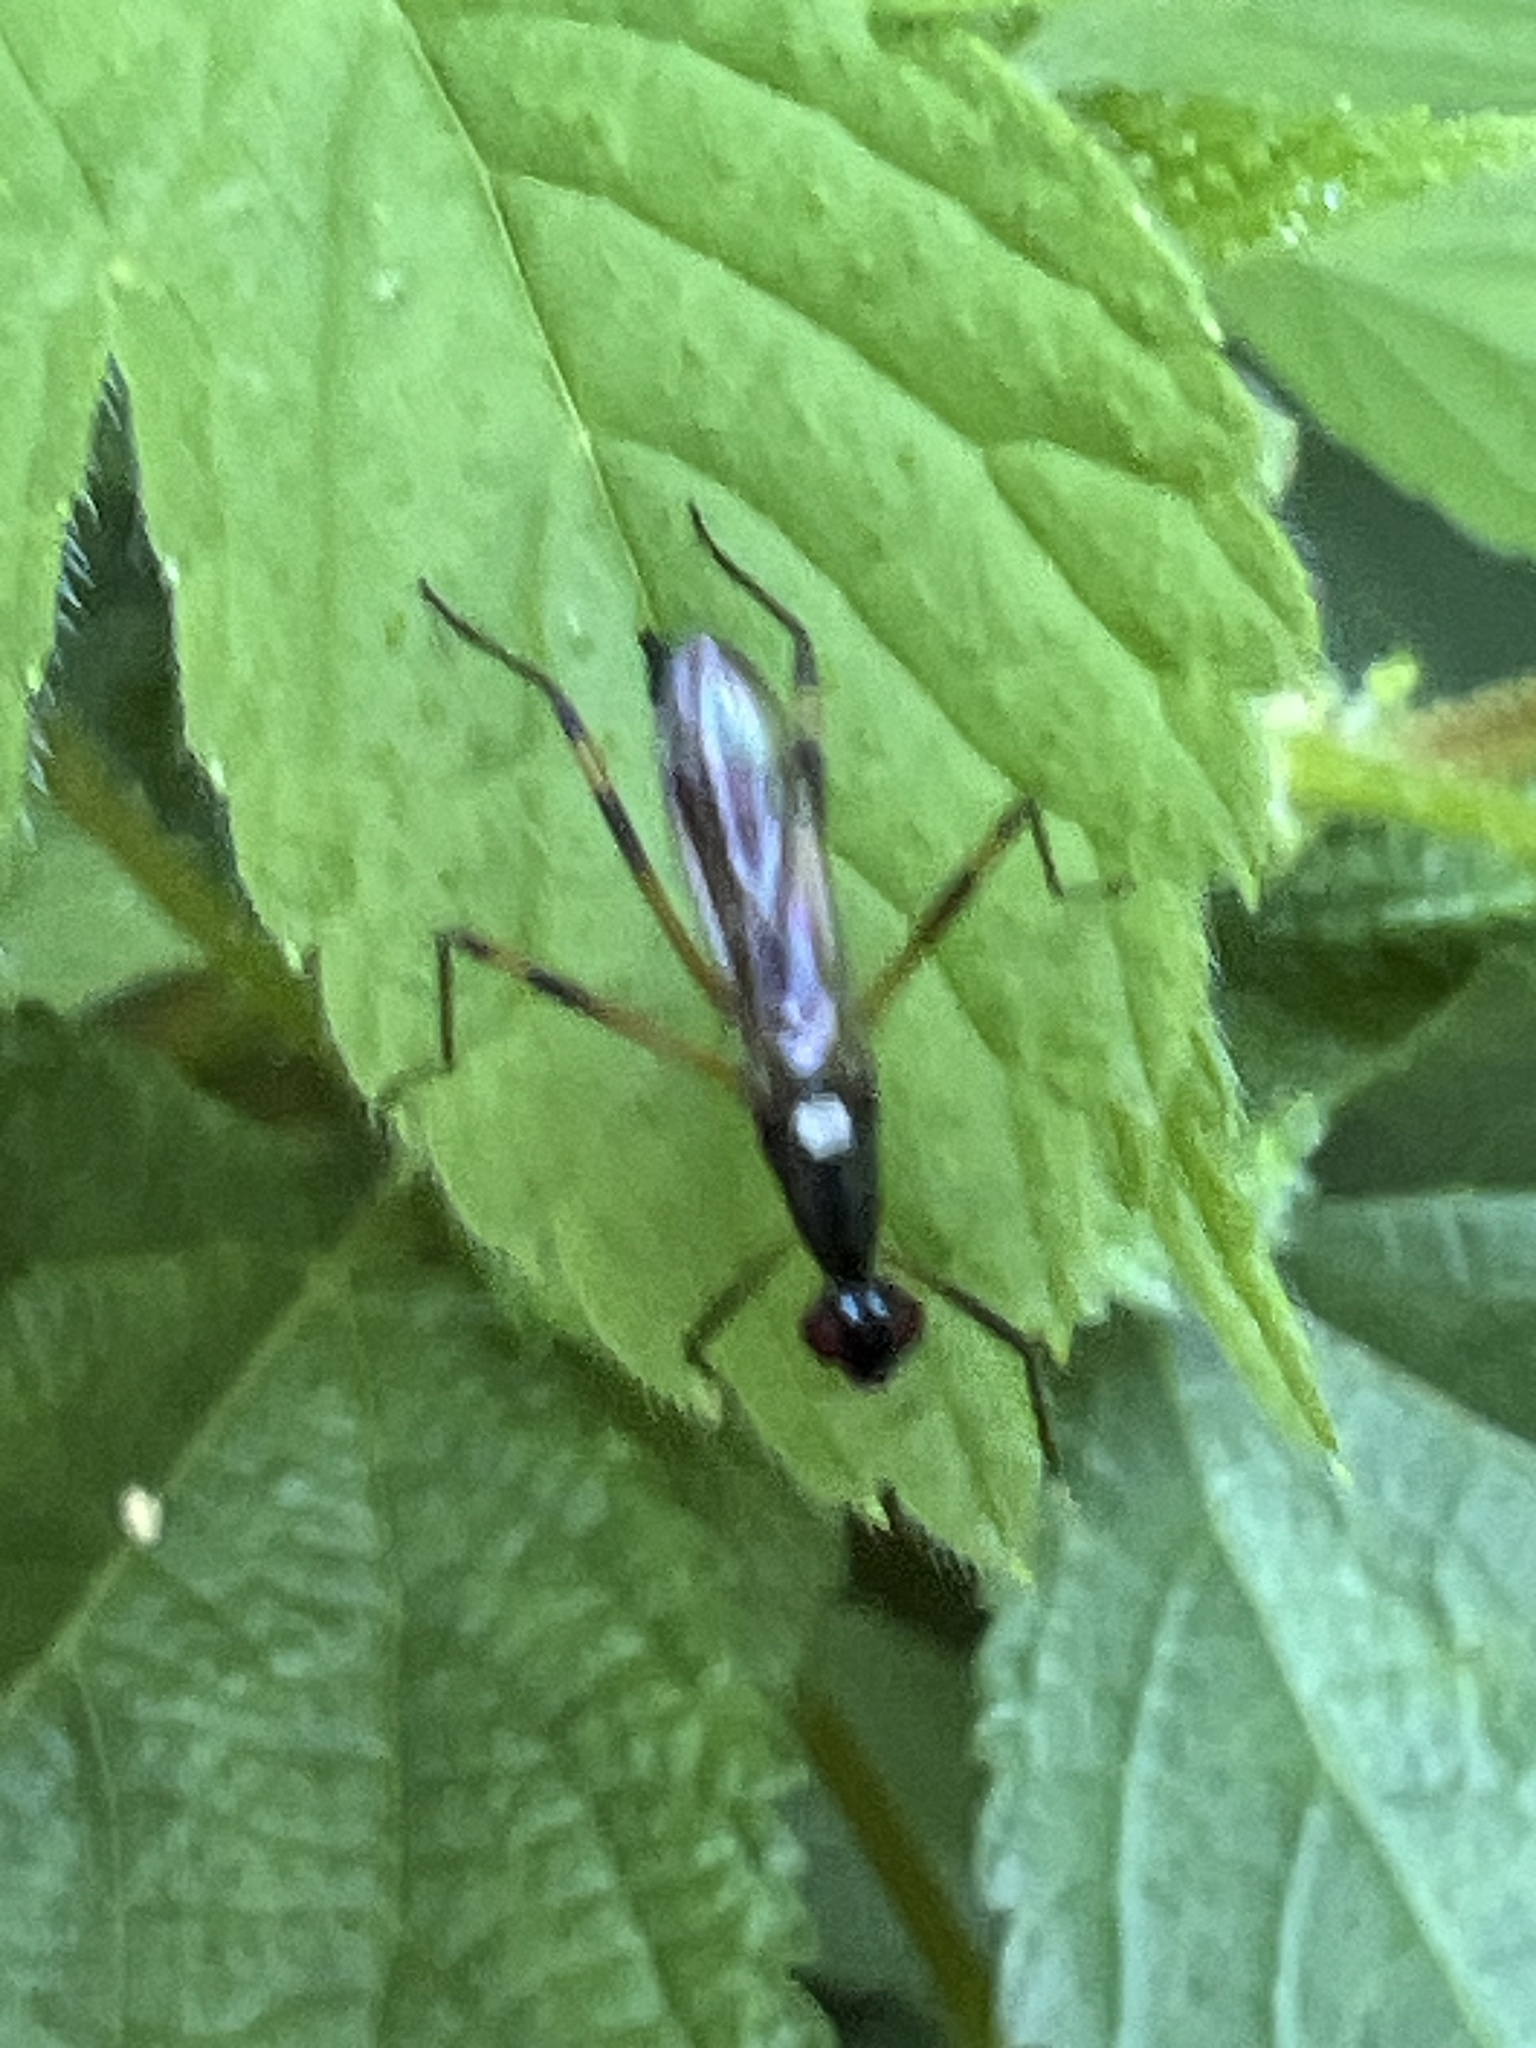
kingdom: Animalia
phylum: Arthropoda
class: Insecta
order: Diptera
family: Micropezidae
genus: Rainieria
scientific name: Rainieria antennaepes
